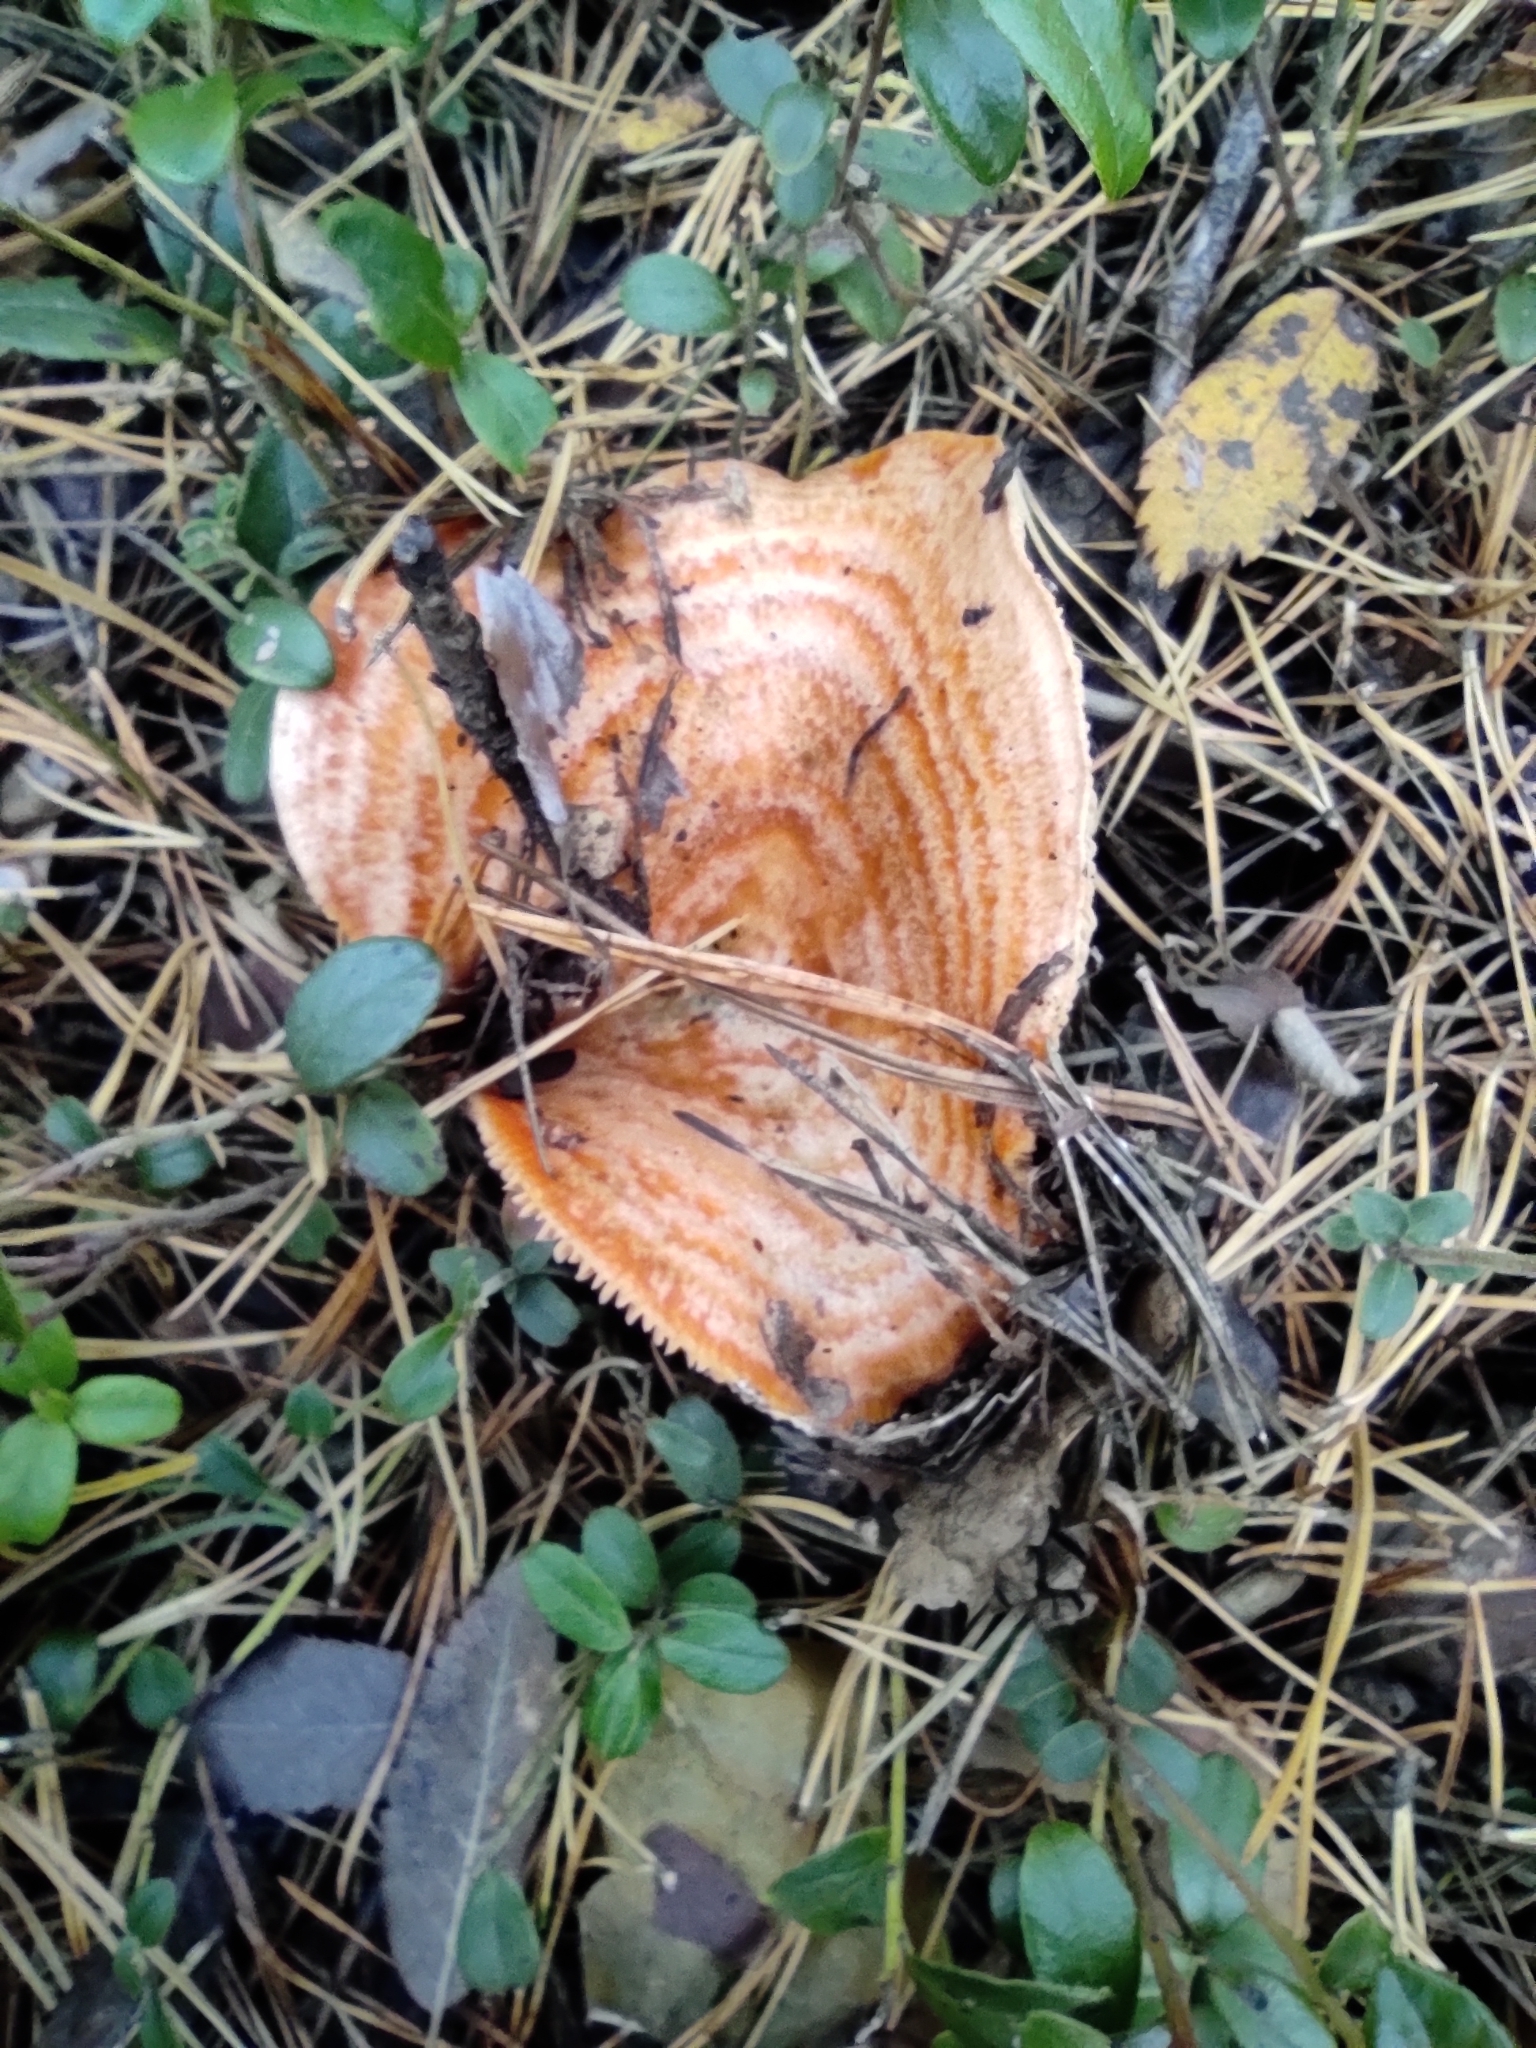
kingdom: Fungi
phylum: Basidiomycota
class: Agaricomycetes
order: Russulales
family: Russulaceae
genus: Lactarius
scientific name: Lactarius deliciosus
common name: Saffron milk-cap
